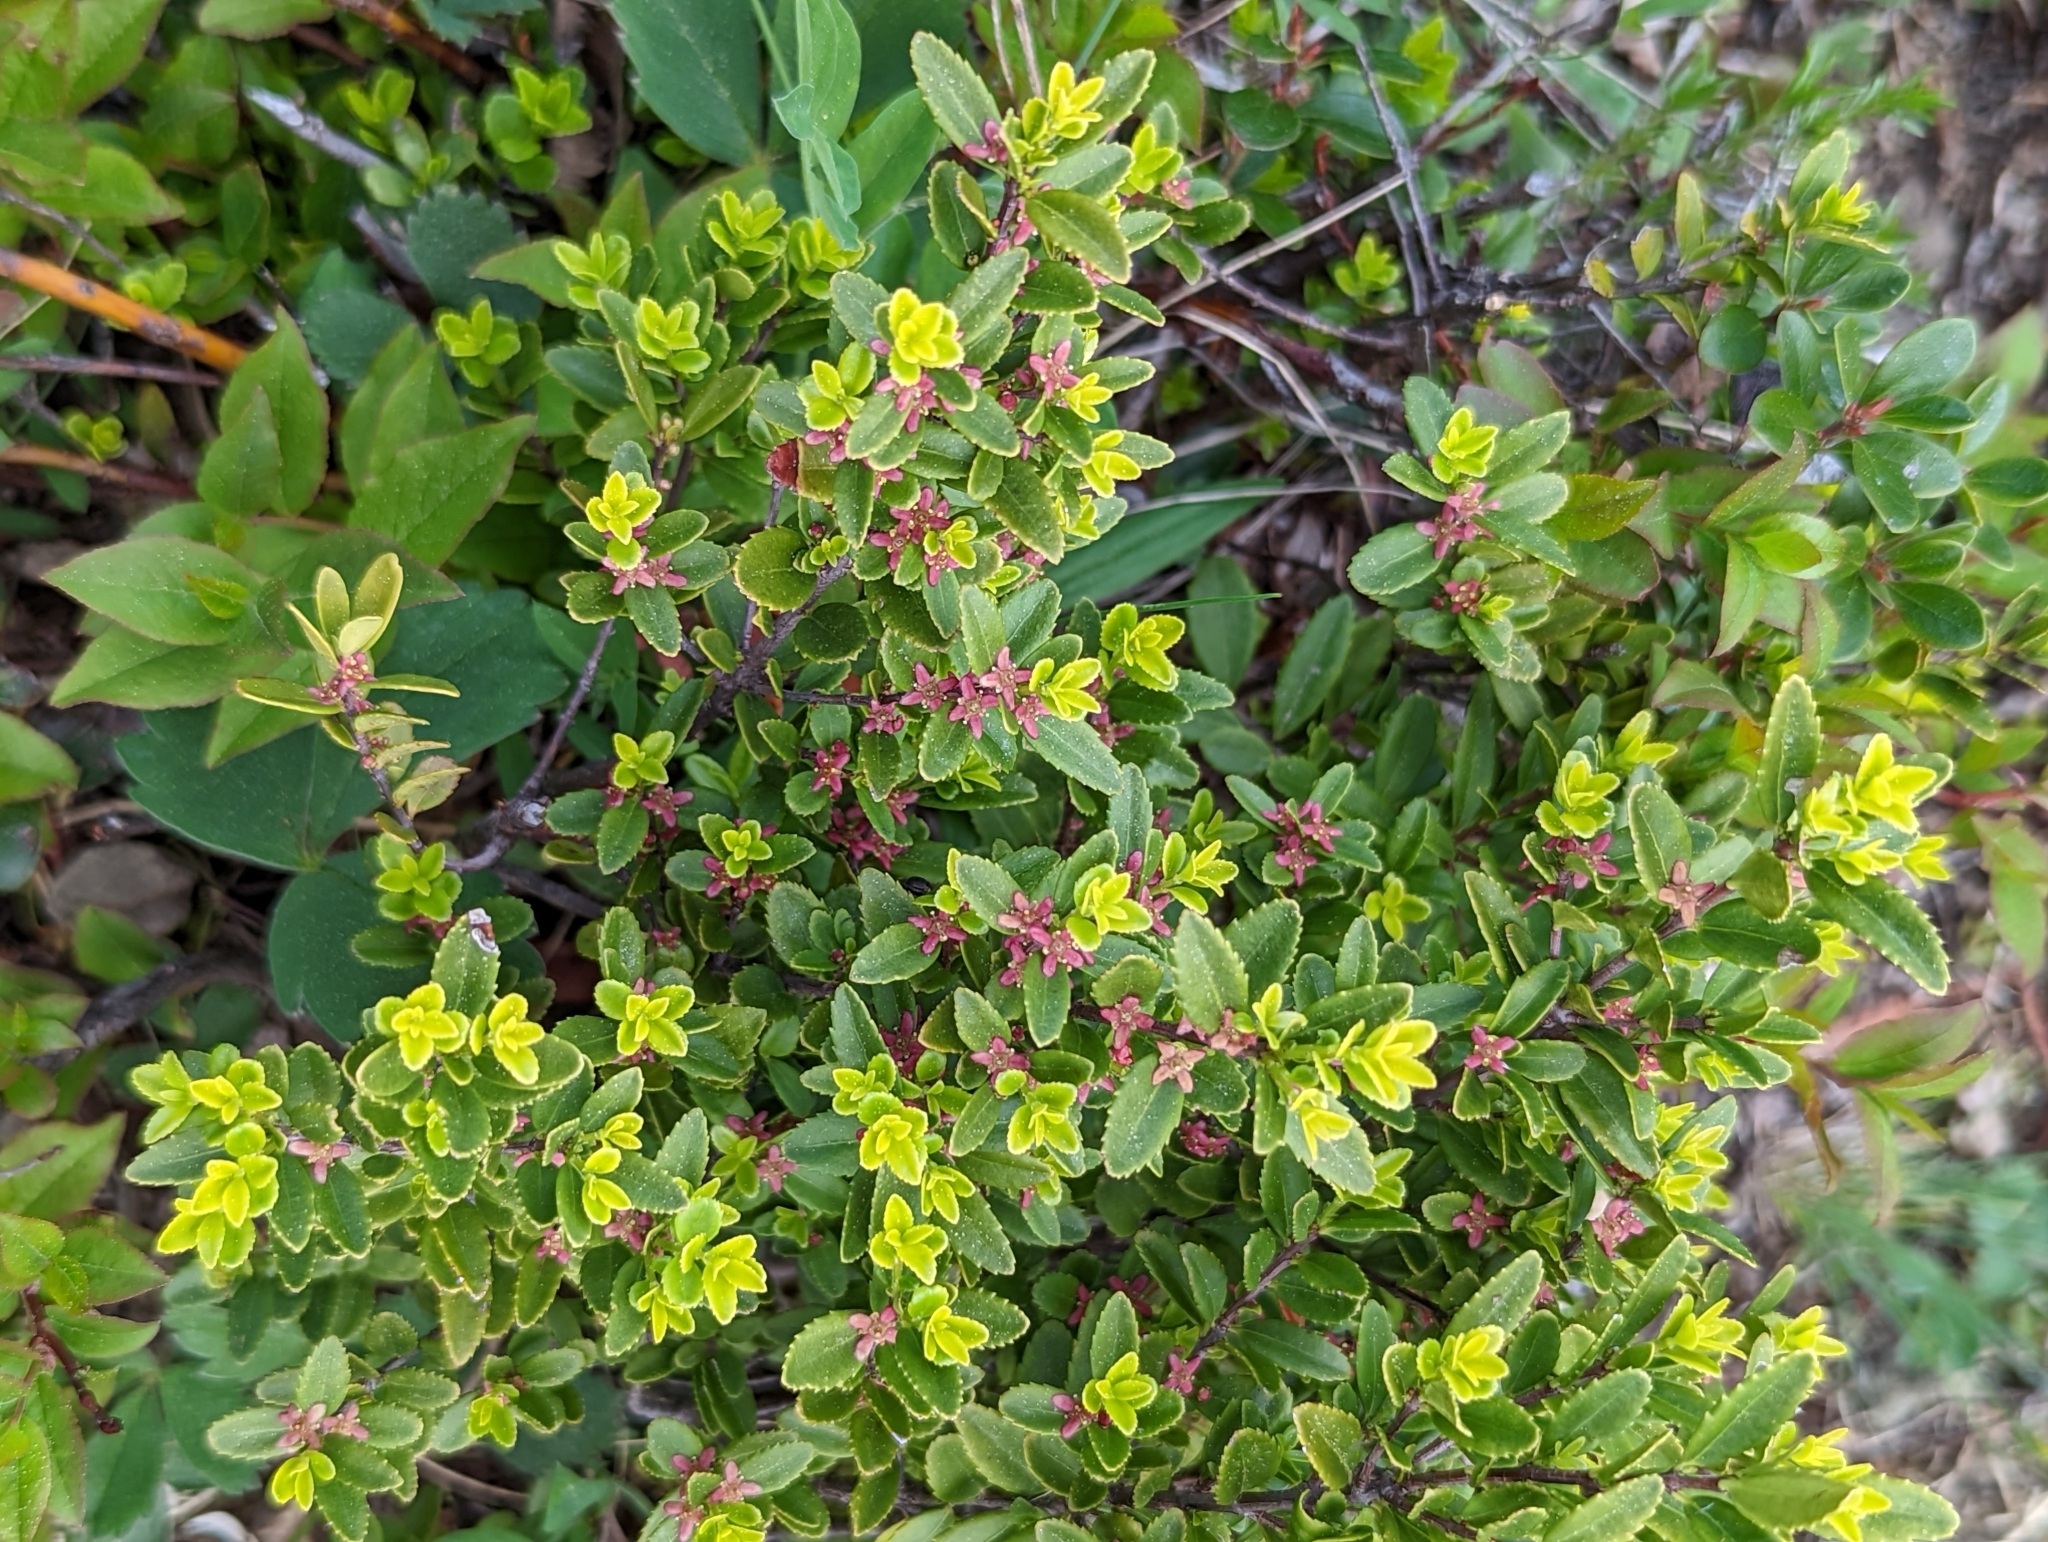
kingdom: Plantae
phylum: Tracheophyta
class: Magnoliopsida
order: Celastrales
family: Celastraceae
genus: Paxistima
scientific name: Paxistima myrsinites
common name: Mountain-lover
